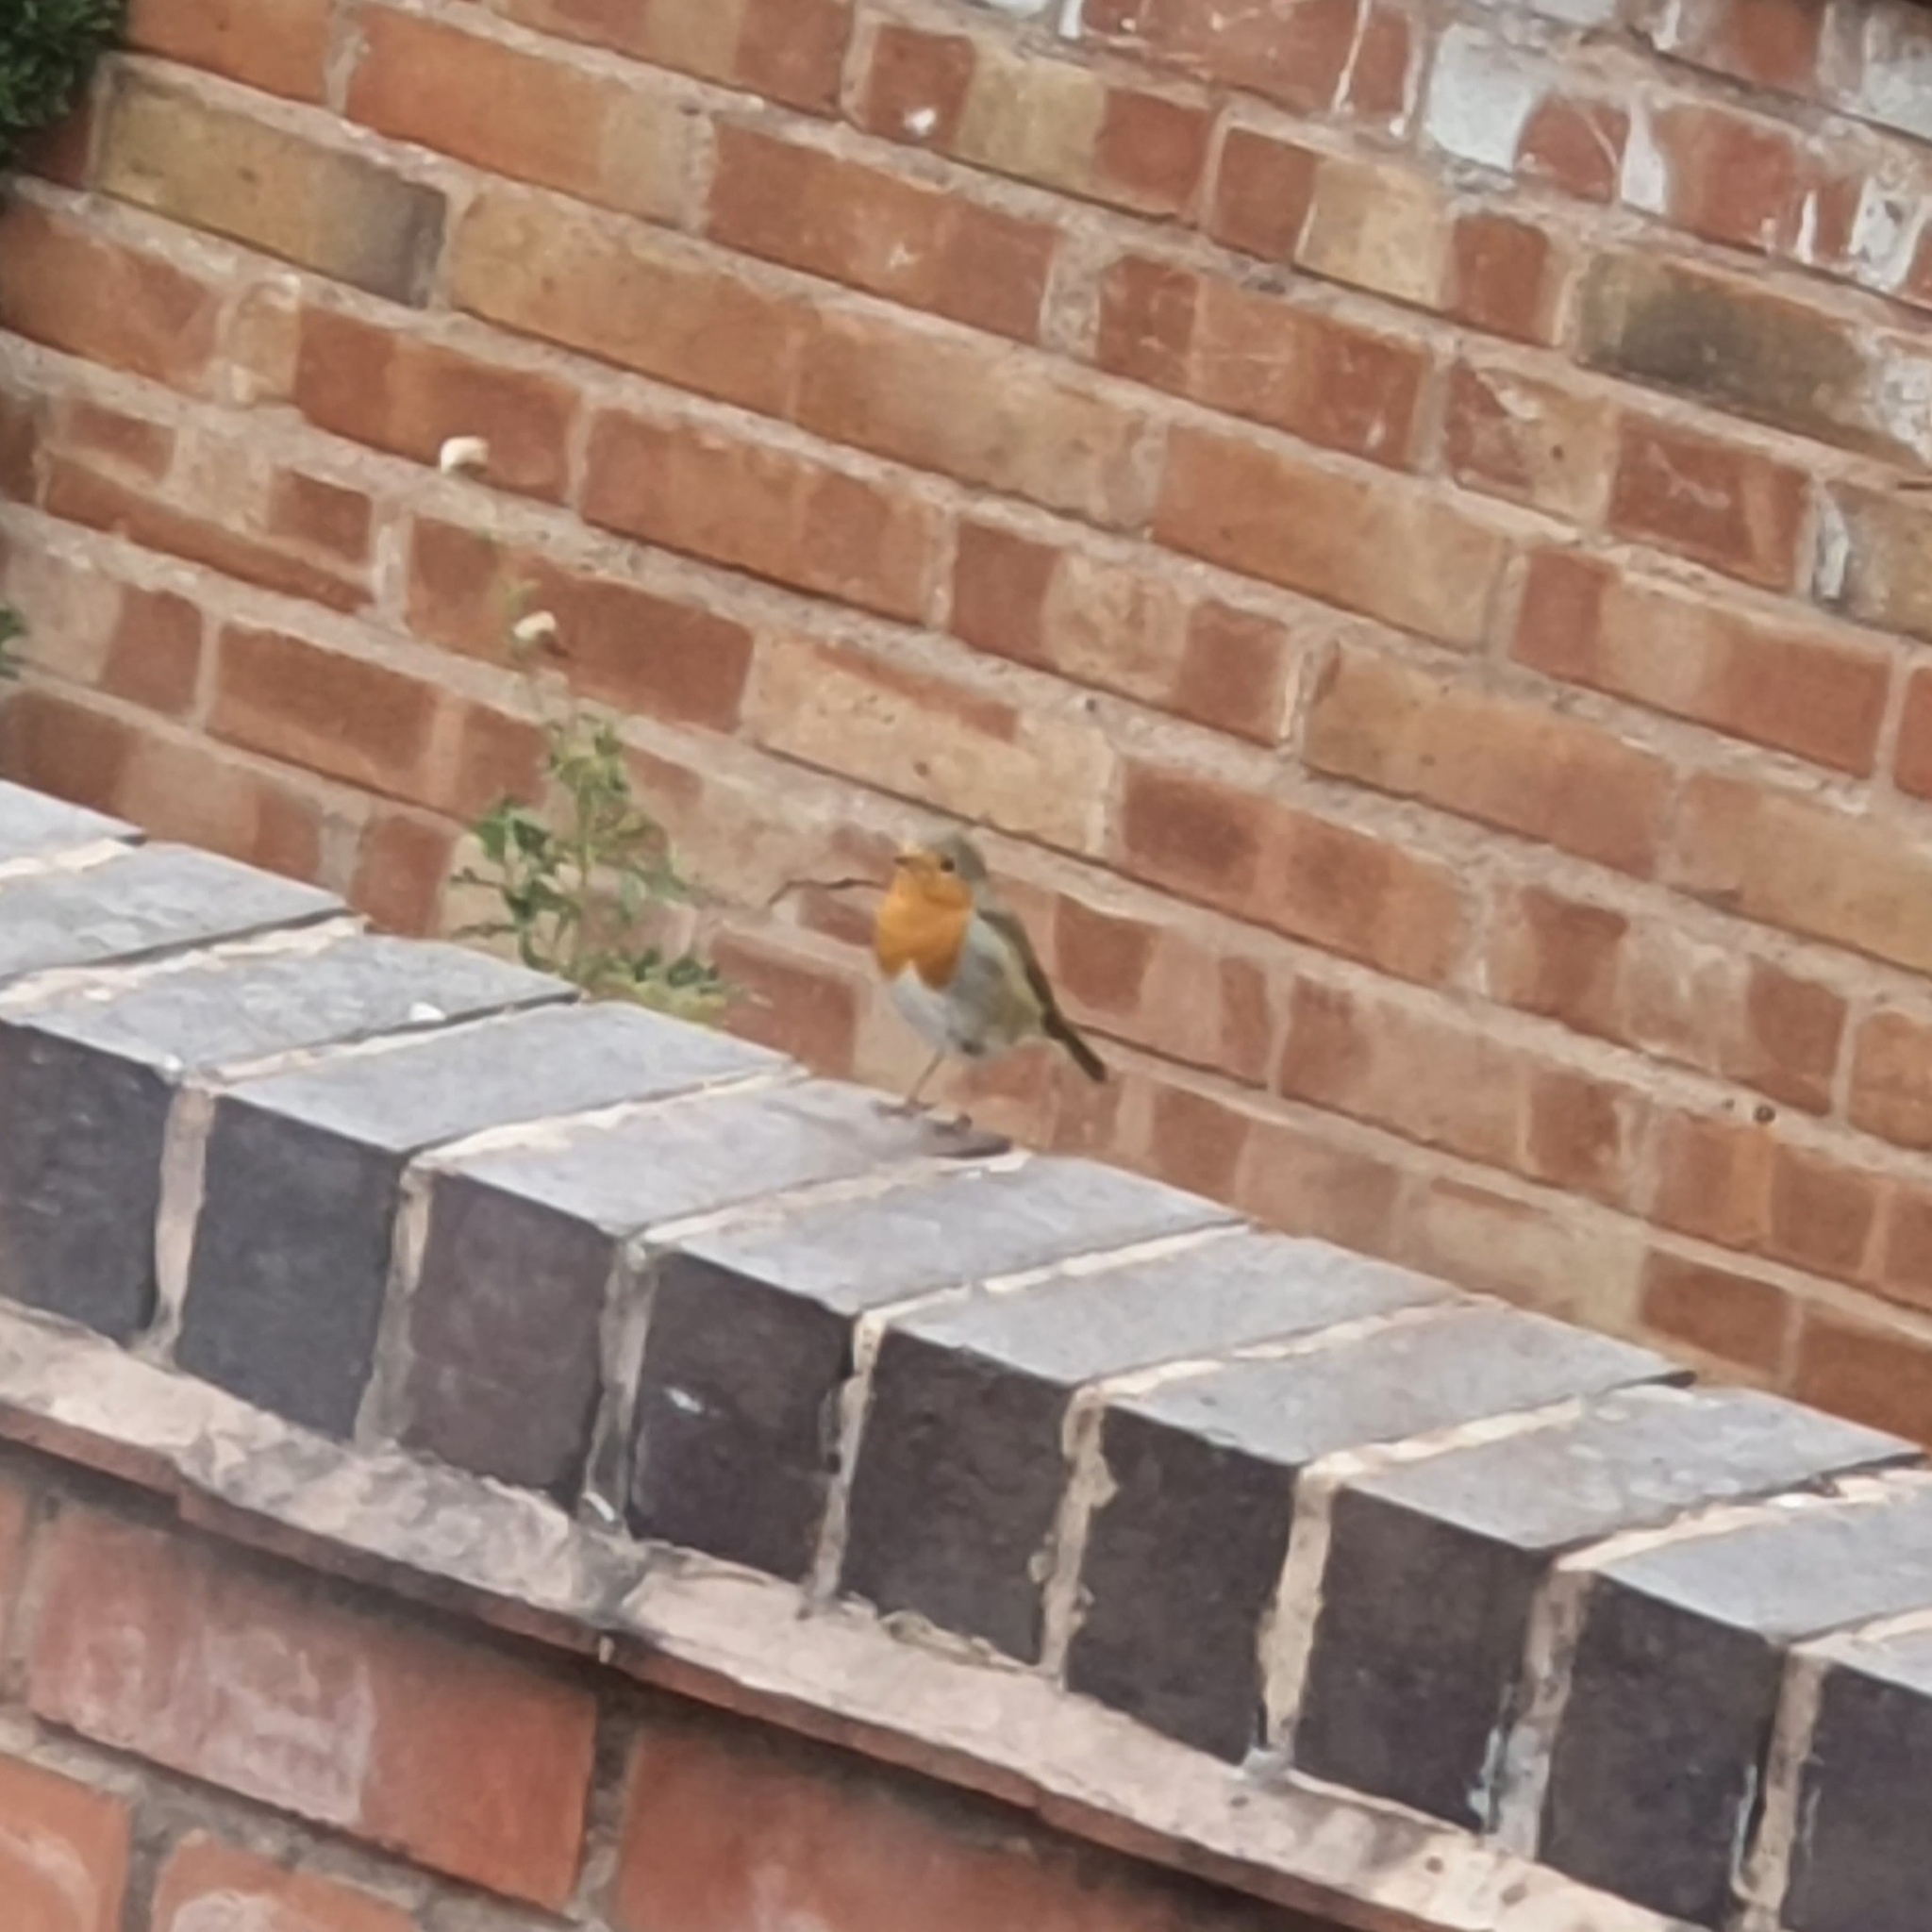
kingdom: Animalia
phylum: Chordata
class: Aves
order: Passeriformes
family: Muscicapidae
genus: Erithacus
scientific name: Erithacus rubecula
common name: European robin
